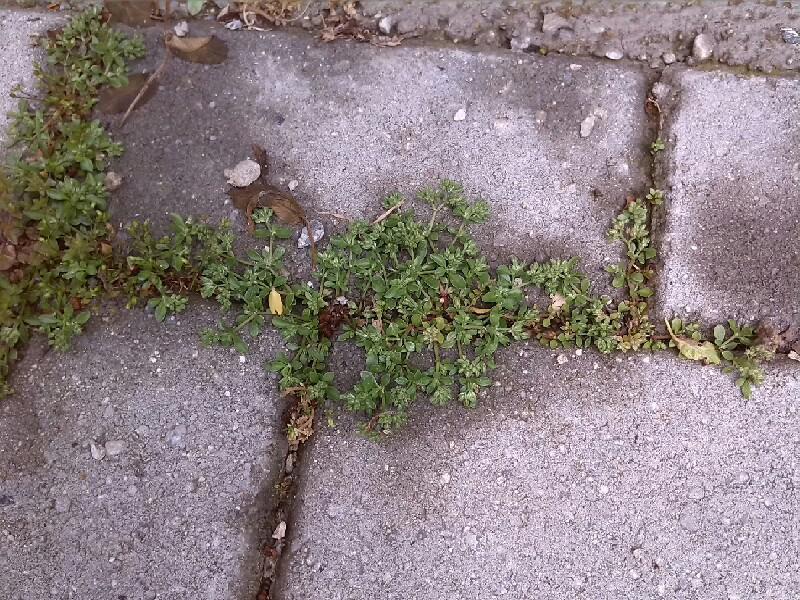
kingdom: Plantae
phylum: Tracheophyta
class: Magnoliopsida
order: Caryophyllales
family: Caryophyllaceae
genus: Polycarpon
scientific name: Polycarpon tetraphyllum
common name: Four-leaved all-seed
